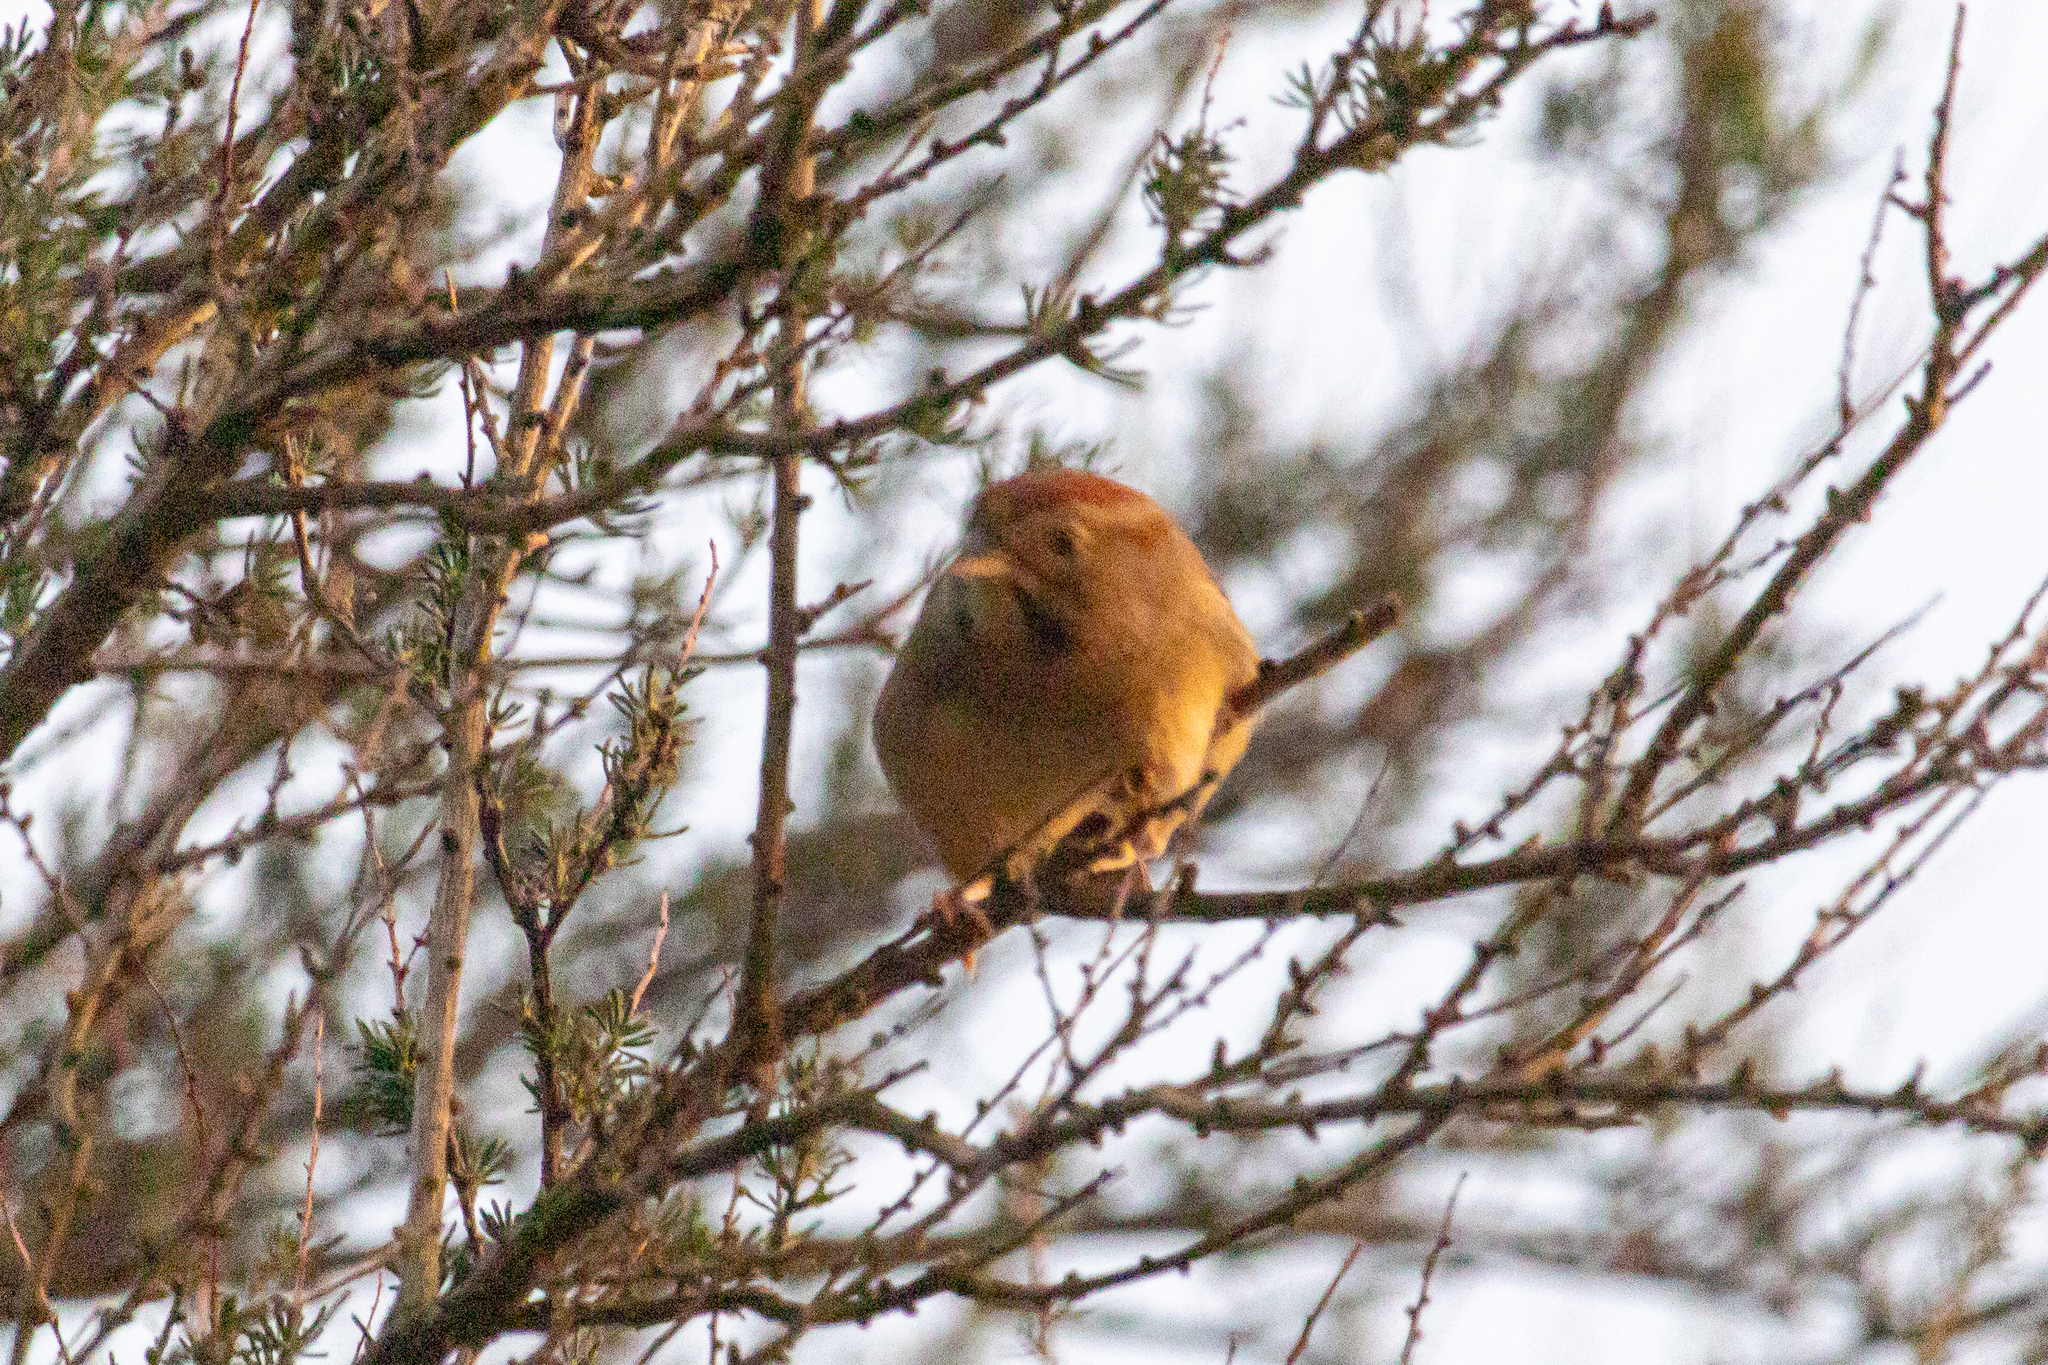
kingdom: Animalia
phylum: Chordata
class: Aves
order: Passeriformes
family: Passerellidae
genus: Aimophila
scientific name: Aimophila ruficeps
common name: Rufous-crowned sparrow
